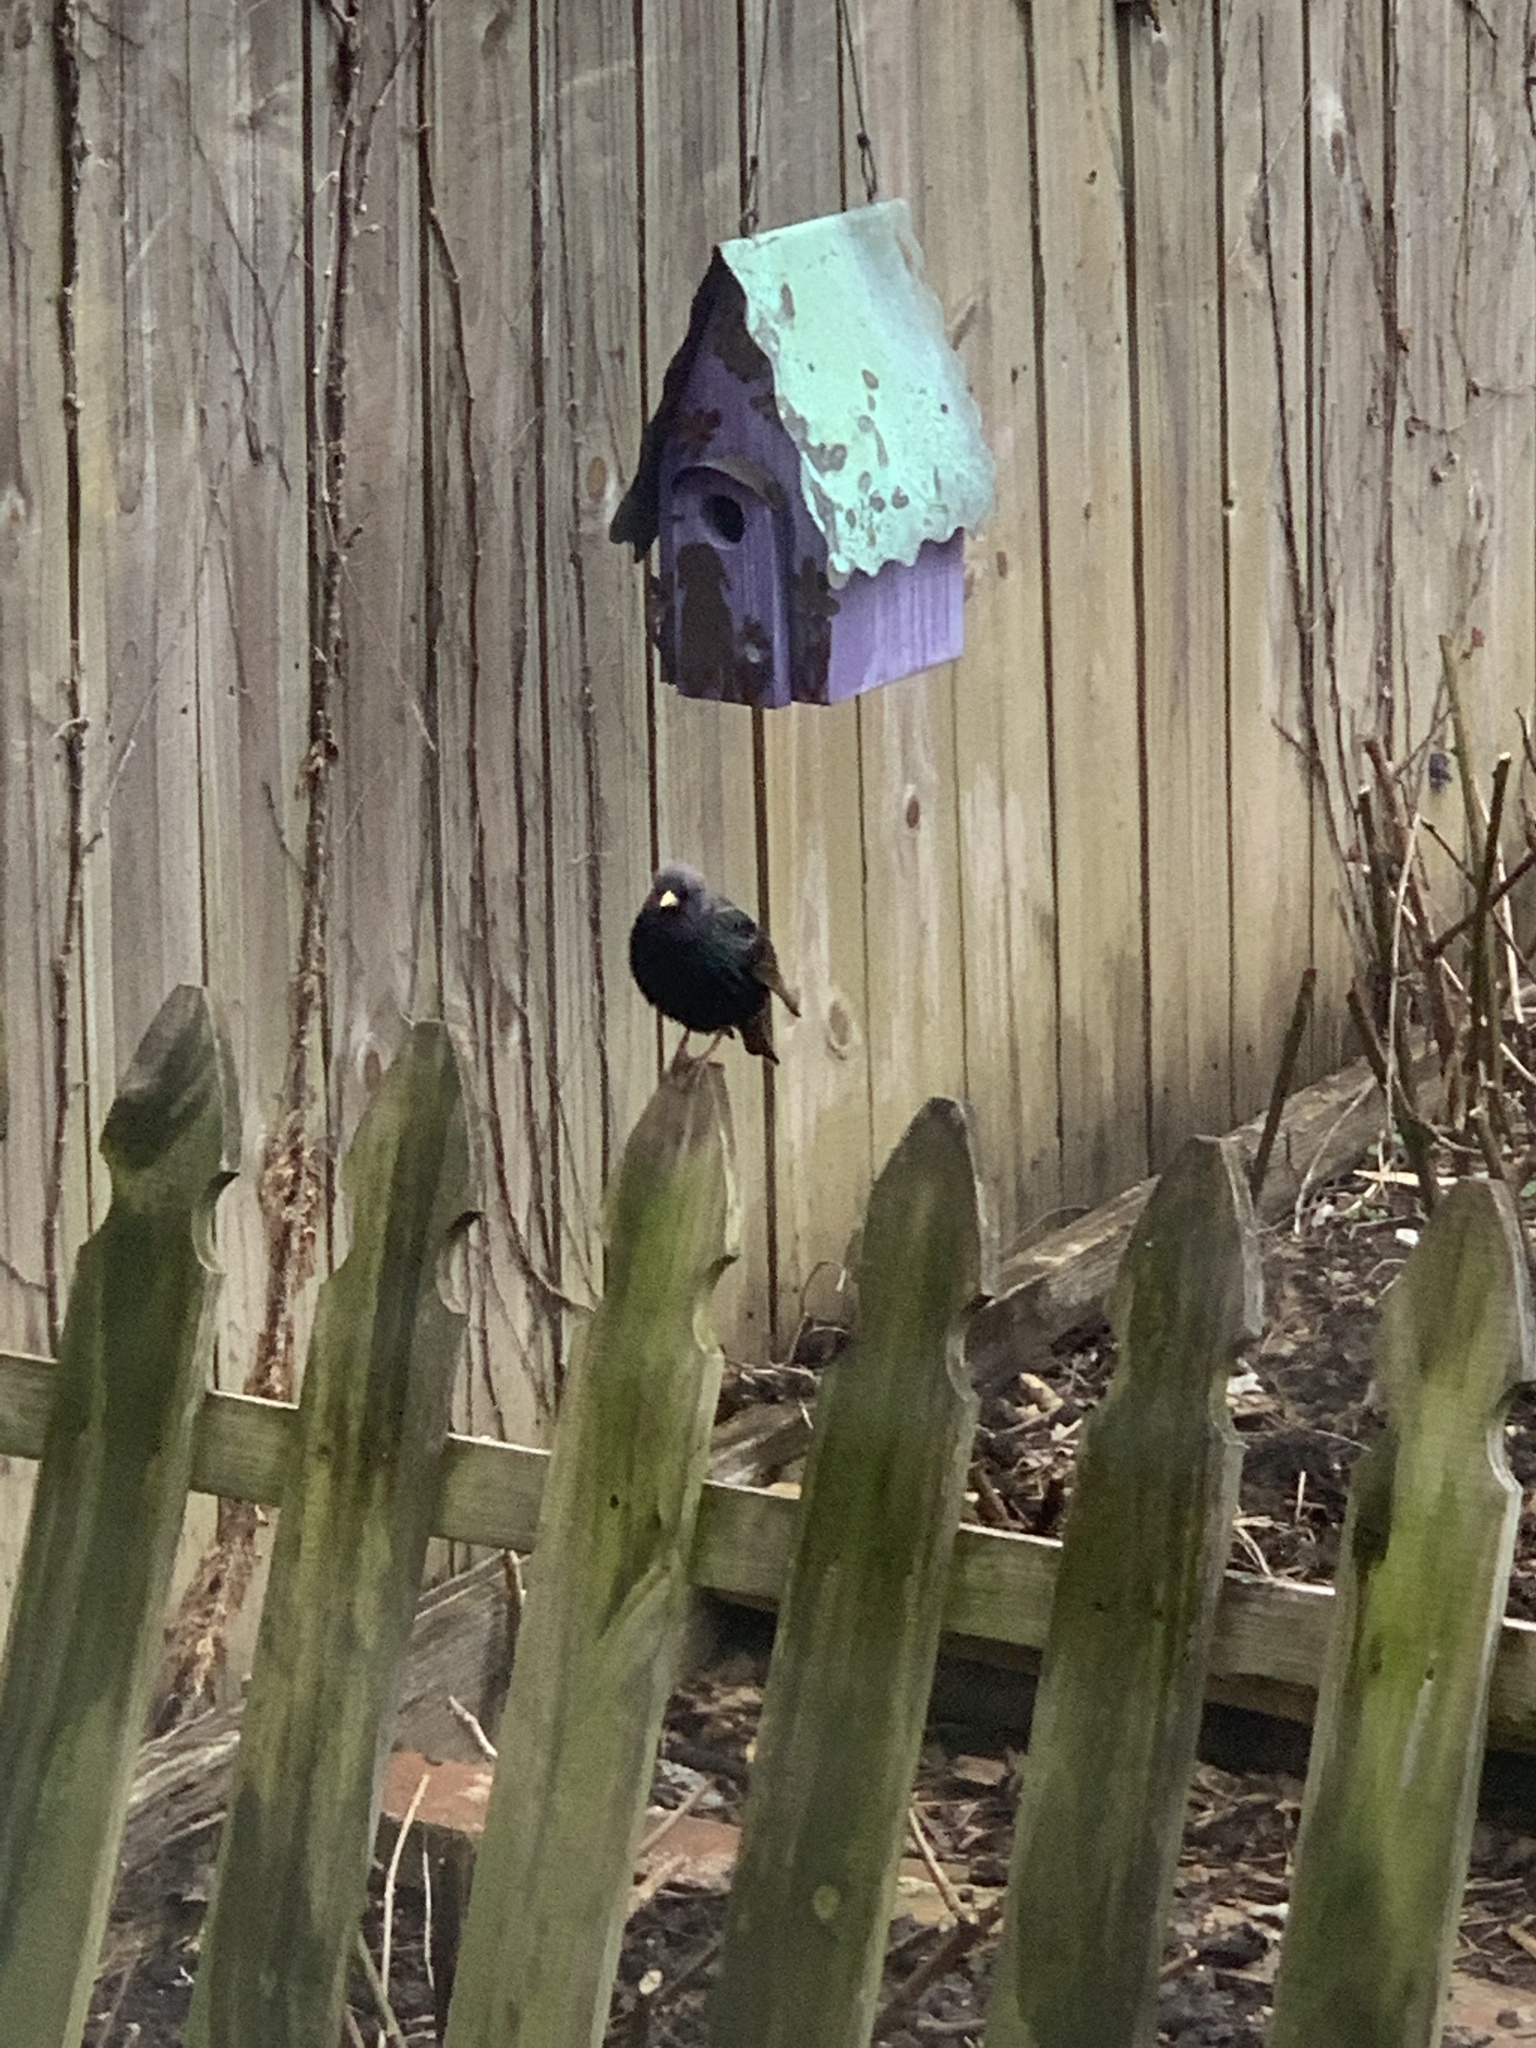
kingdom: Animalia
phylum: Chordata
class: Aves
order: Passeriformes
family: Sturnidae
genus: Sturnus
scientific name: Sturnus vulgaris
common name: Common starling
